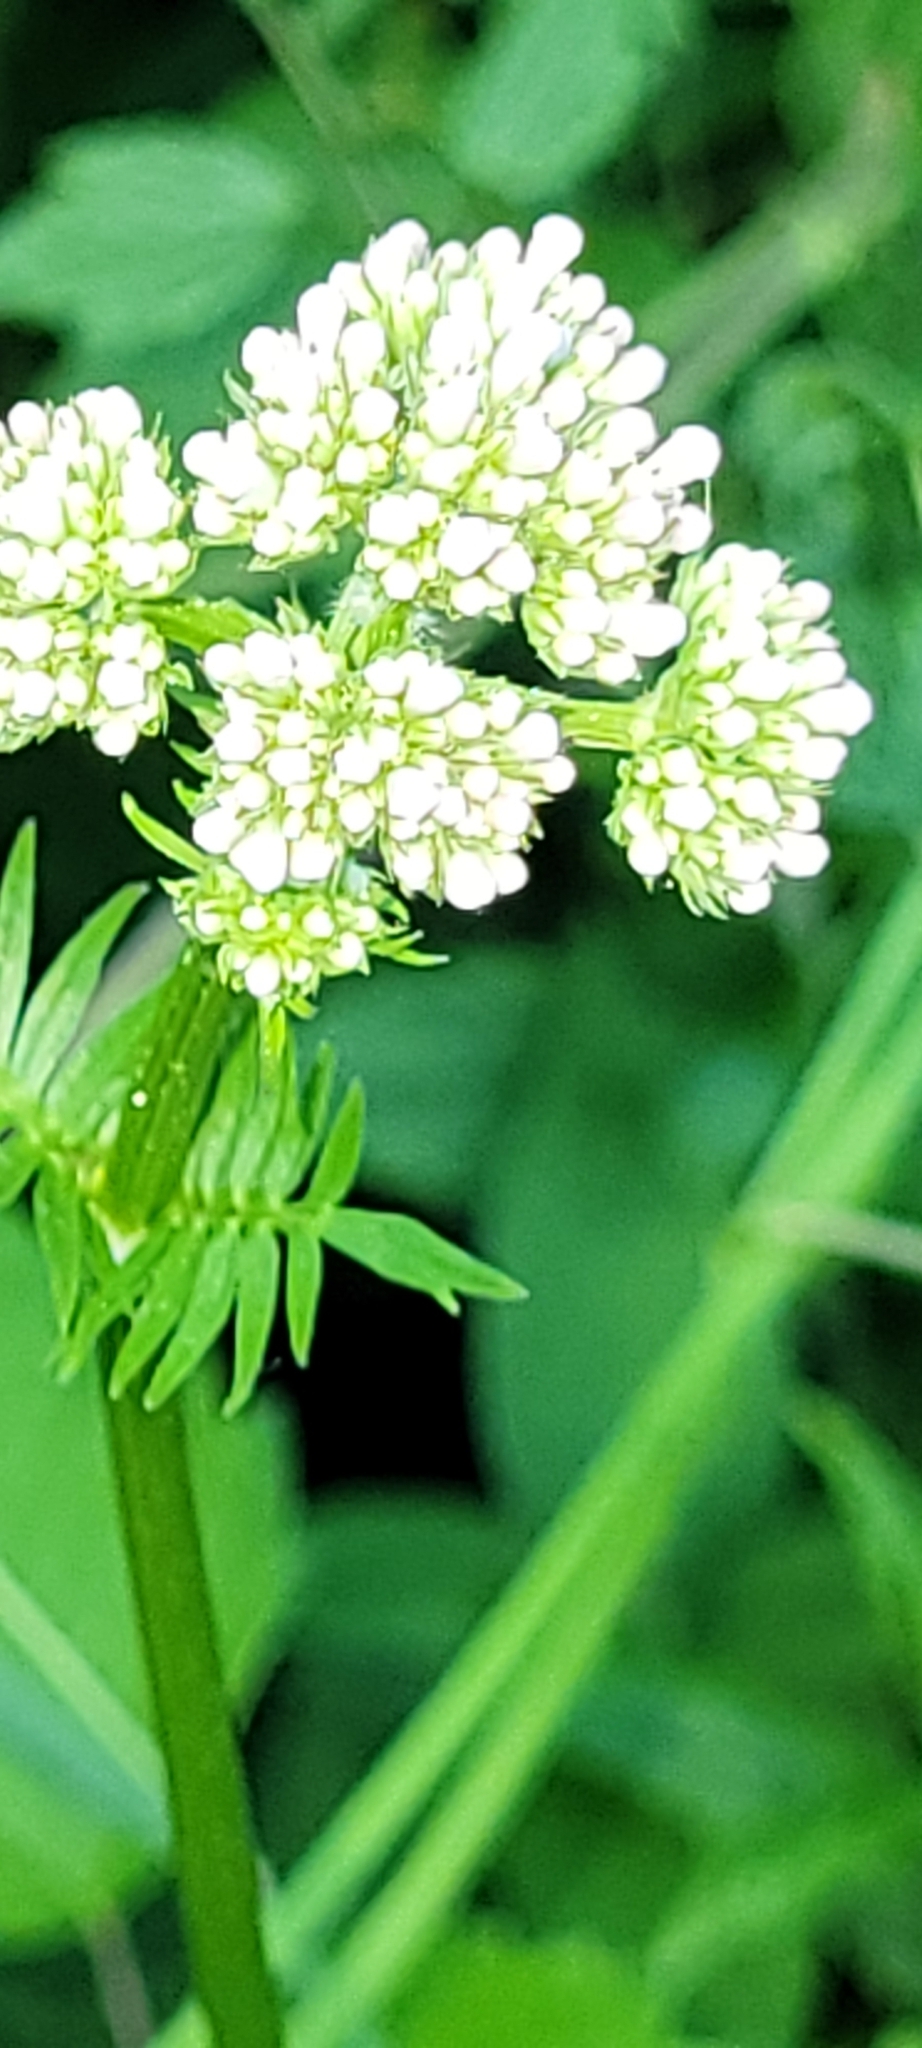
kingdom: Plantae
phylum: Tracheophyta
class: Magnoliopsida
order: Dipsacales
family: Caprifoliaceae
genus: Valeriana
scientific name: Valeriana officinalis
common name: Common valerian
